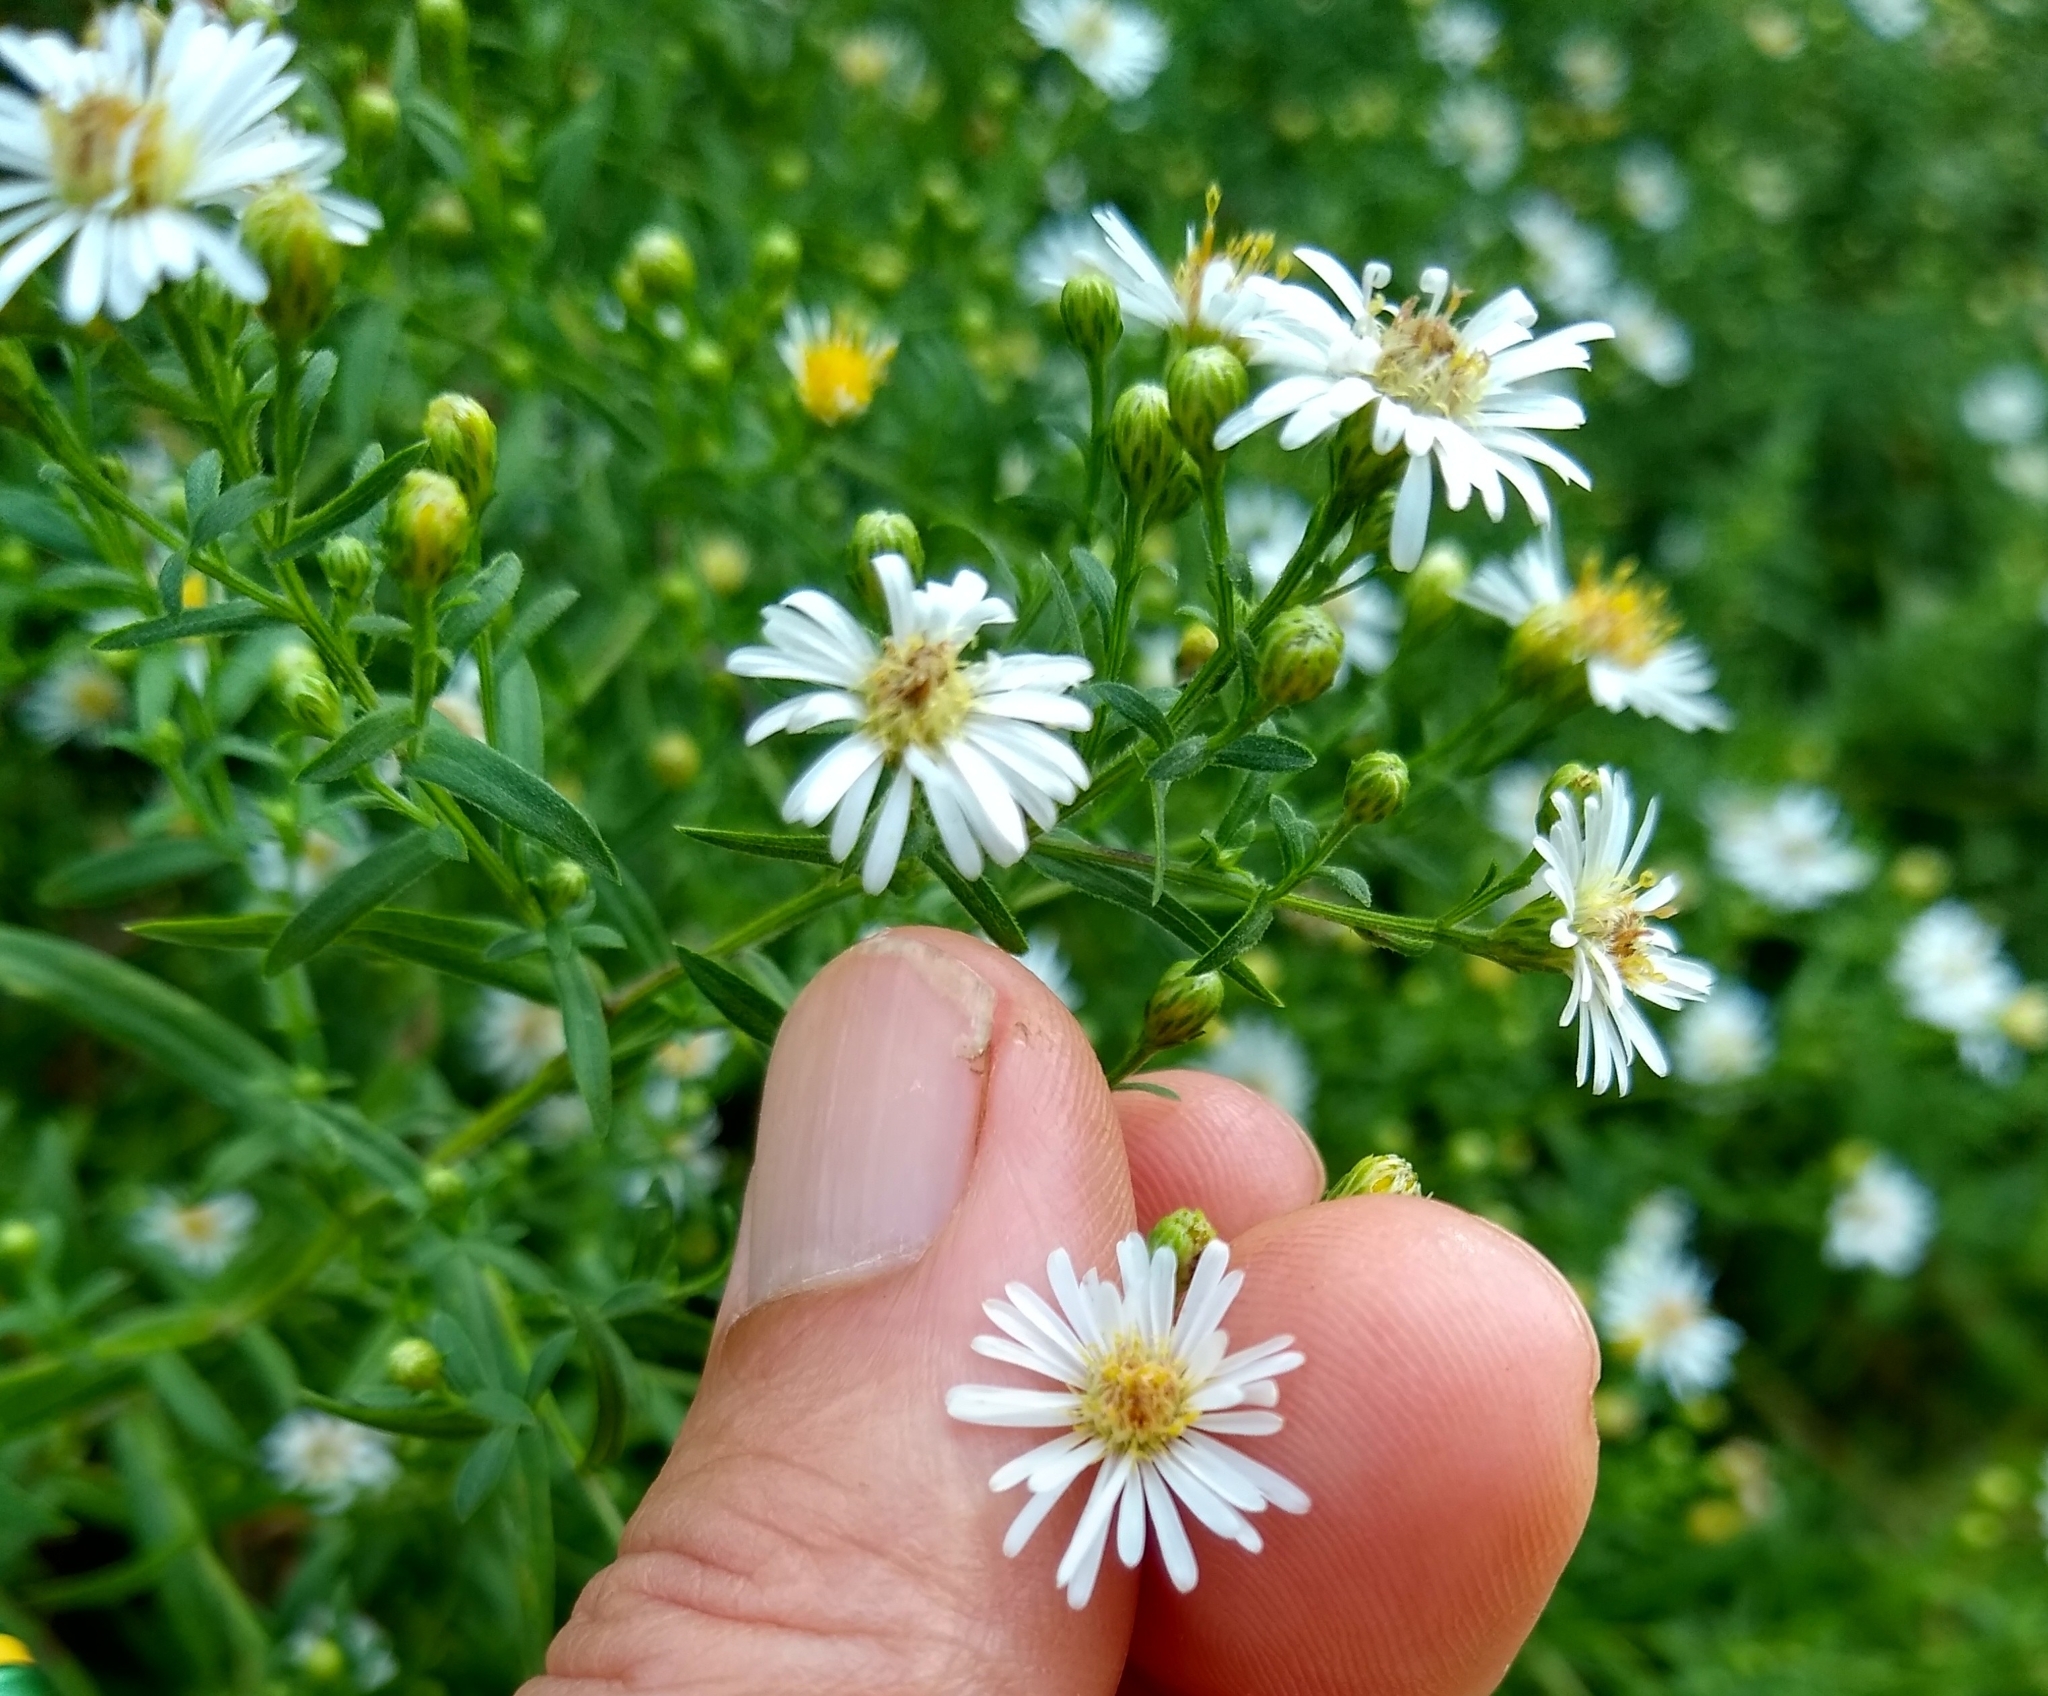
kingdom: Plantae
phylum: Tracheophyta
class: Magnoliopsida
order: Asterales
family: Asteraceae
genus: Symphyotrichum
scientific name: Symphyotrichum pilosum
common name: Awl aster
